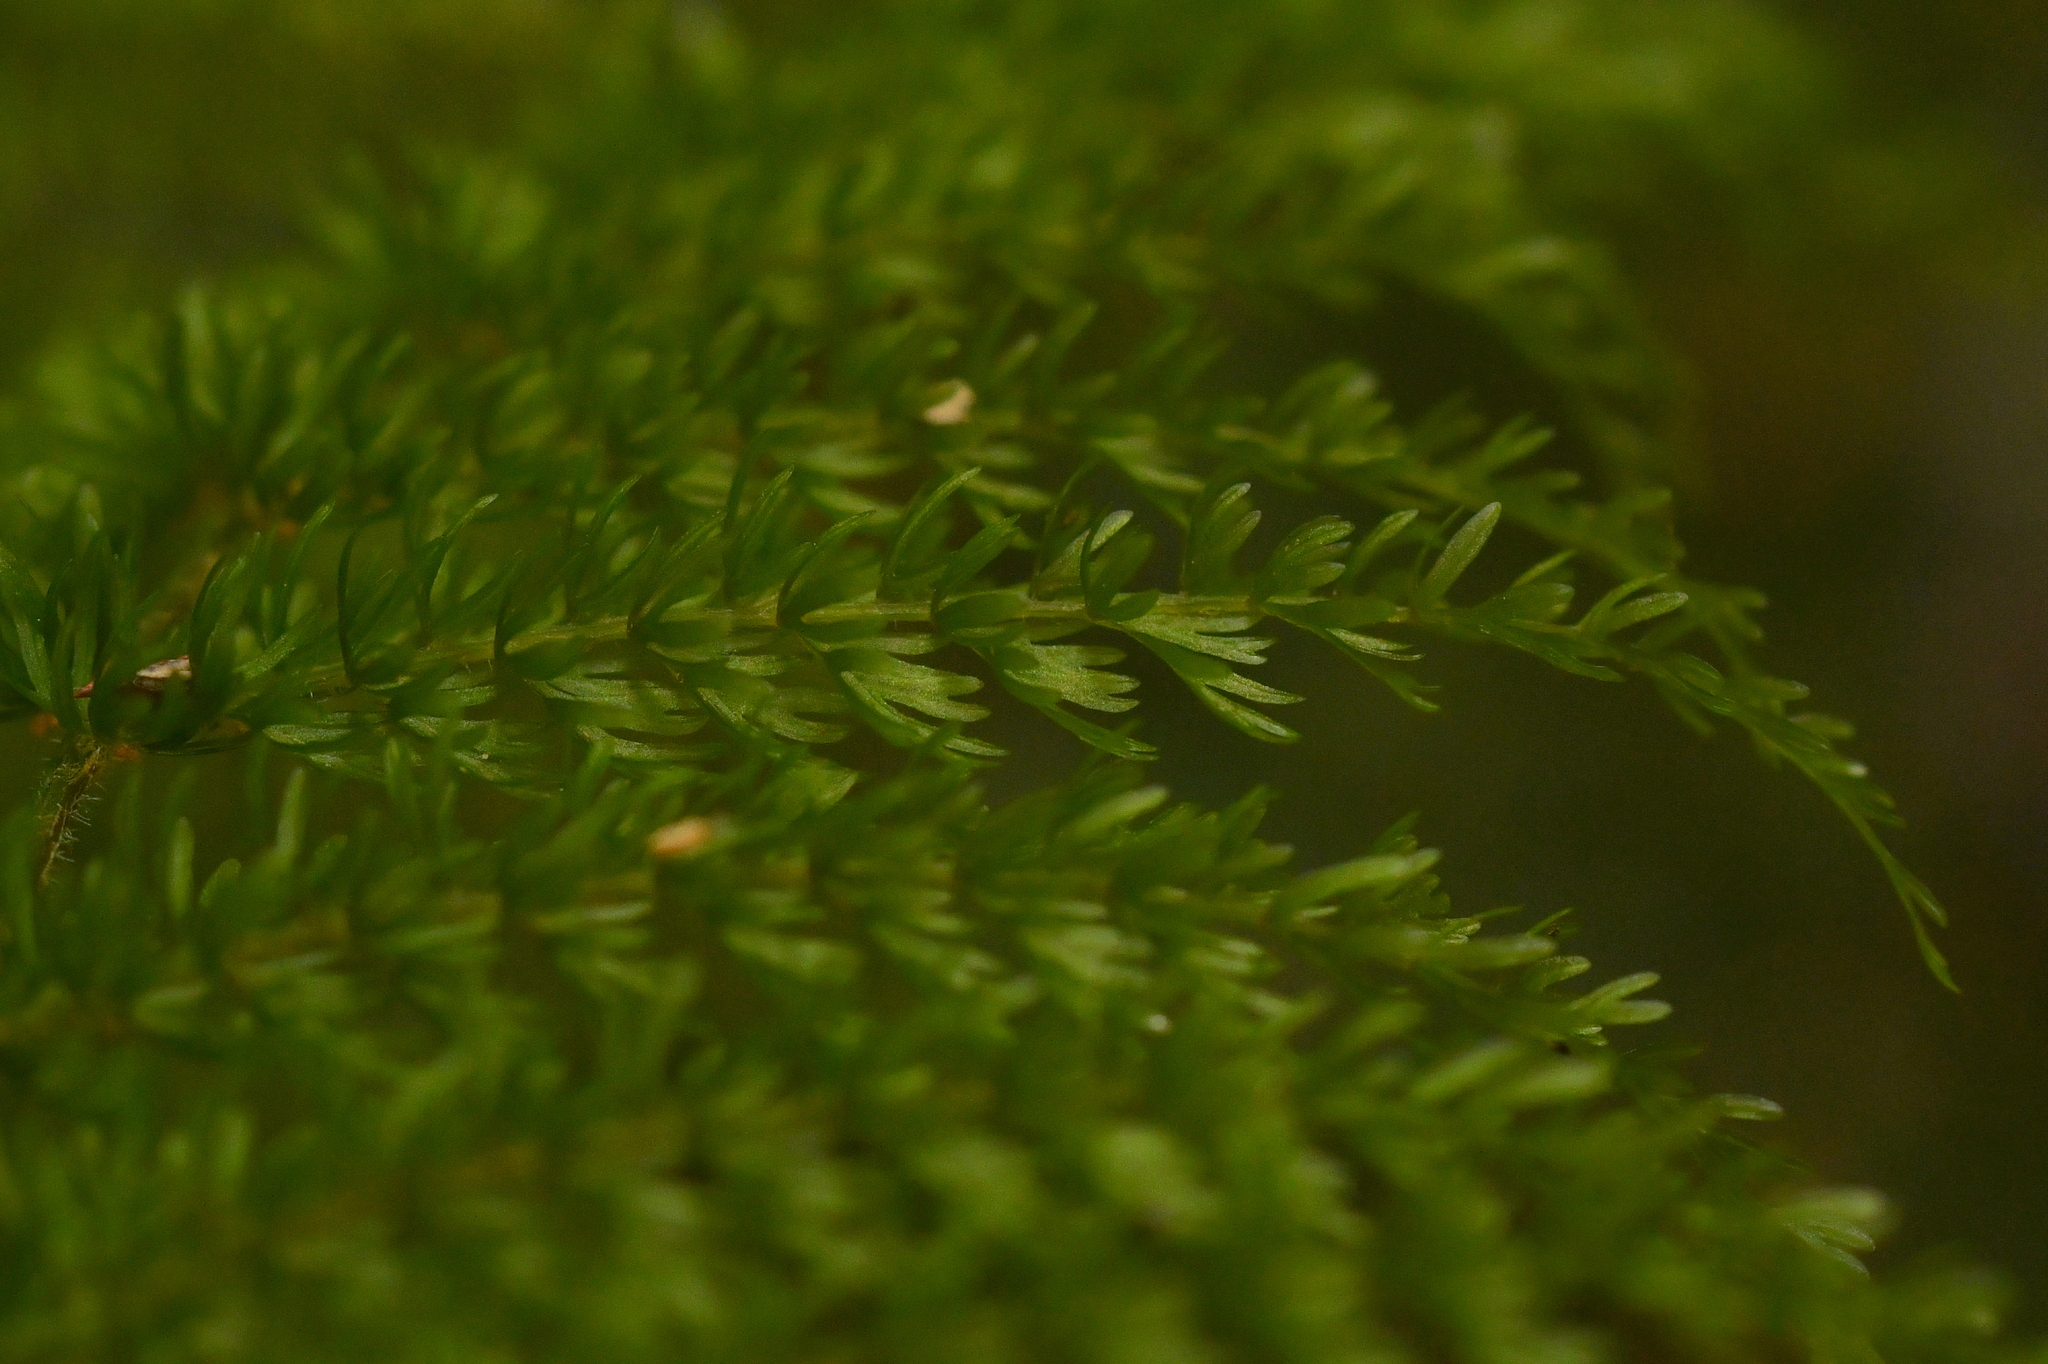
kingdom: Plantae
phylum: Tracheophyta
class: Polypodiopsida
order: Osmundales
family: Osmundaceae
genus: Leptopteris
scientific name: Leptopteris superba
